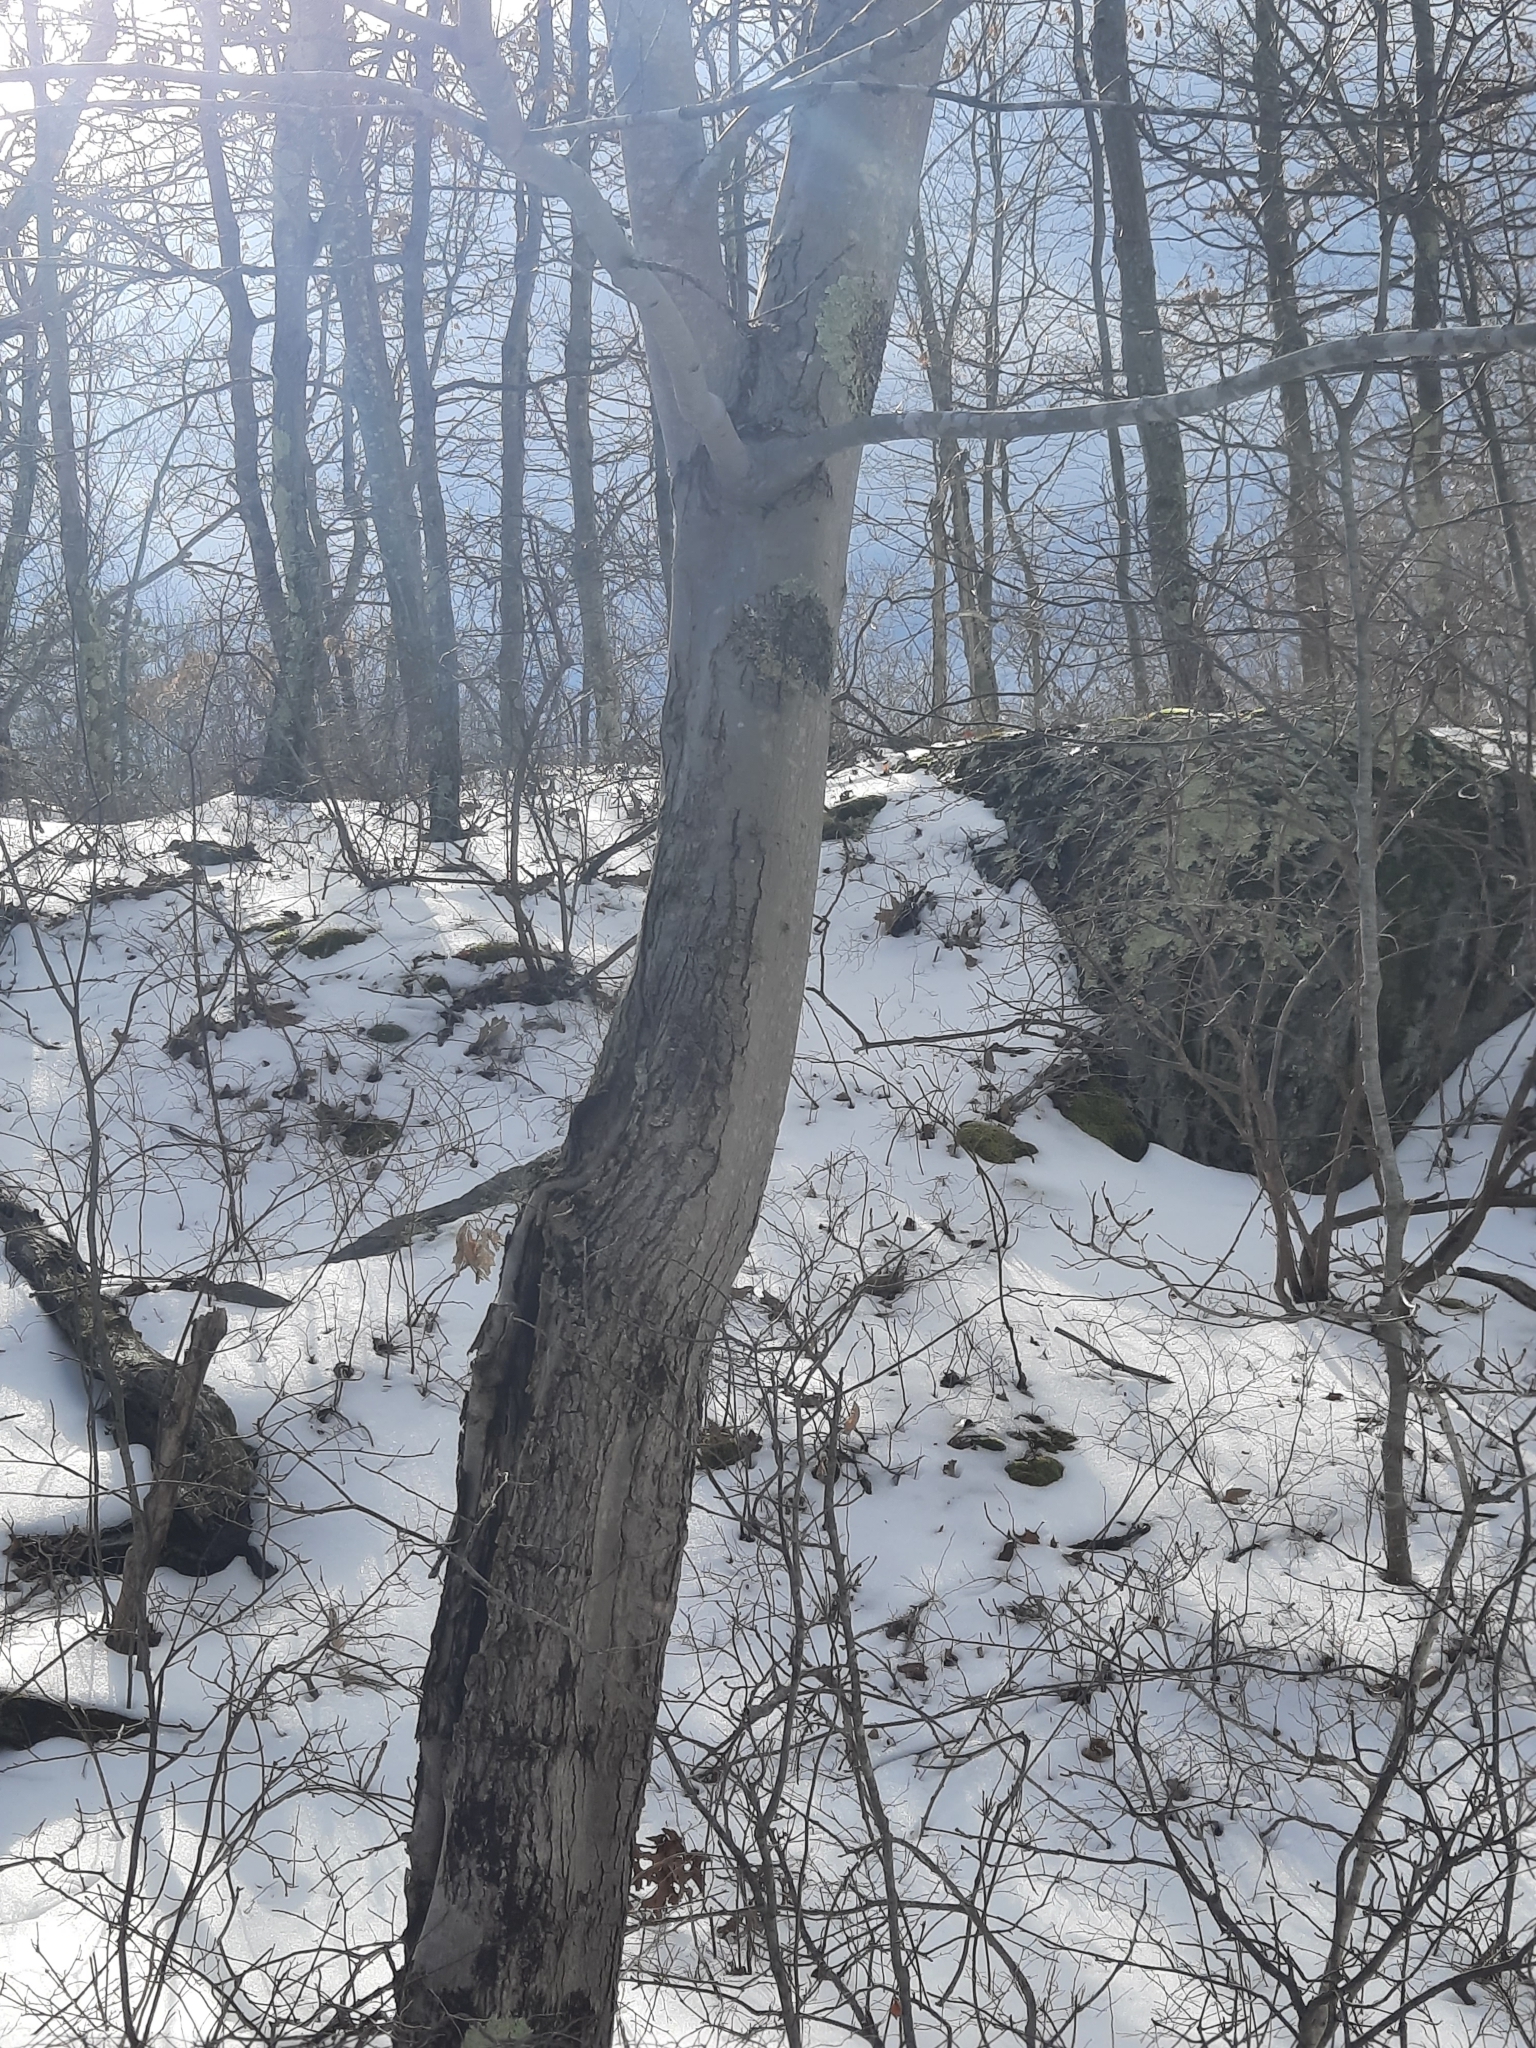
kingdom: Plantae
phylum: Tracheophyta
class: Magnoliopsida
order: Sapindales
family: Sapindaceae
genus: Acer
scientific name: Acer rubrum
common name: Red maple
